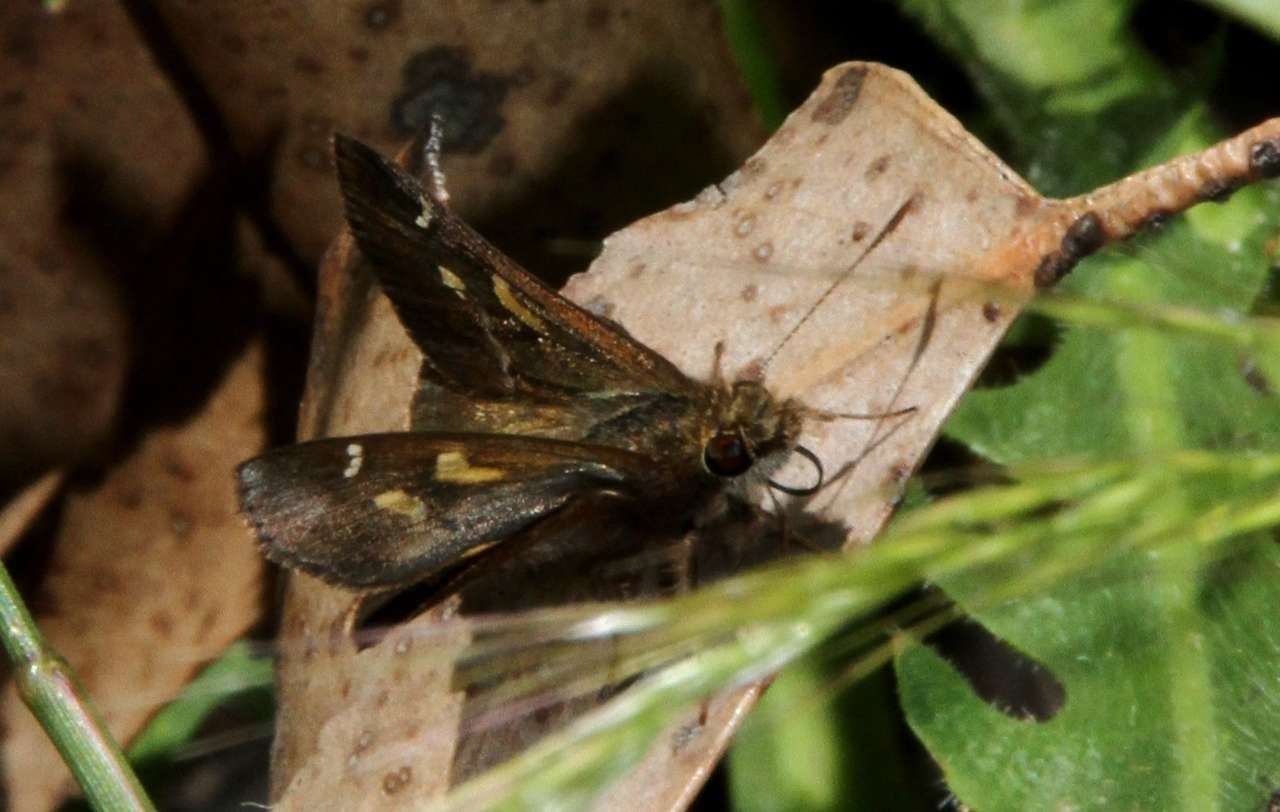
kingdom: Animalia
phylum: Arthropoda
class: Insecta
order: Lepidoptera
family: Hesperiidae
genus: Toxidia
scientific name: Toxidia andersoni
